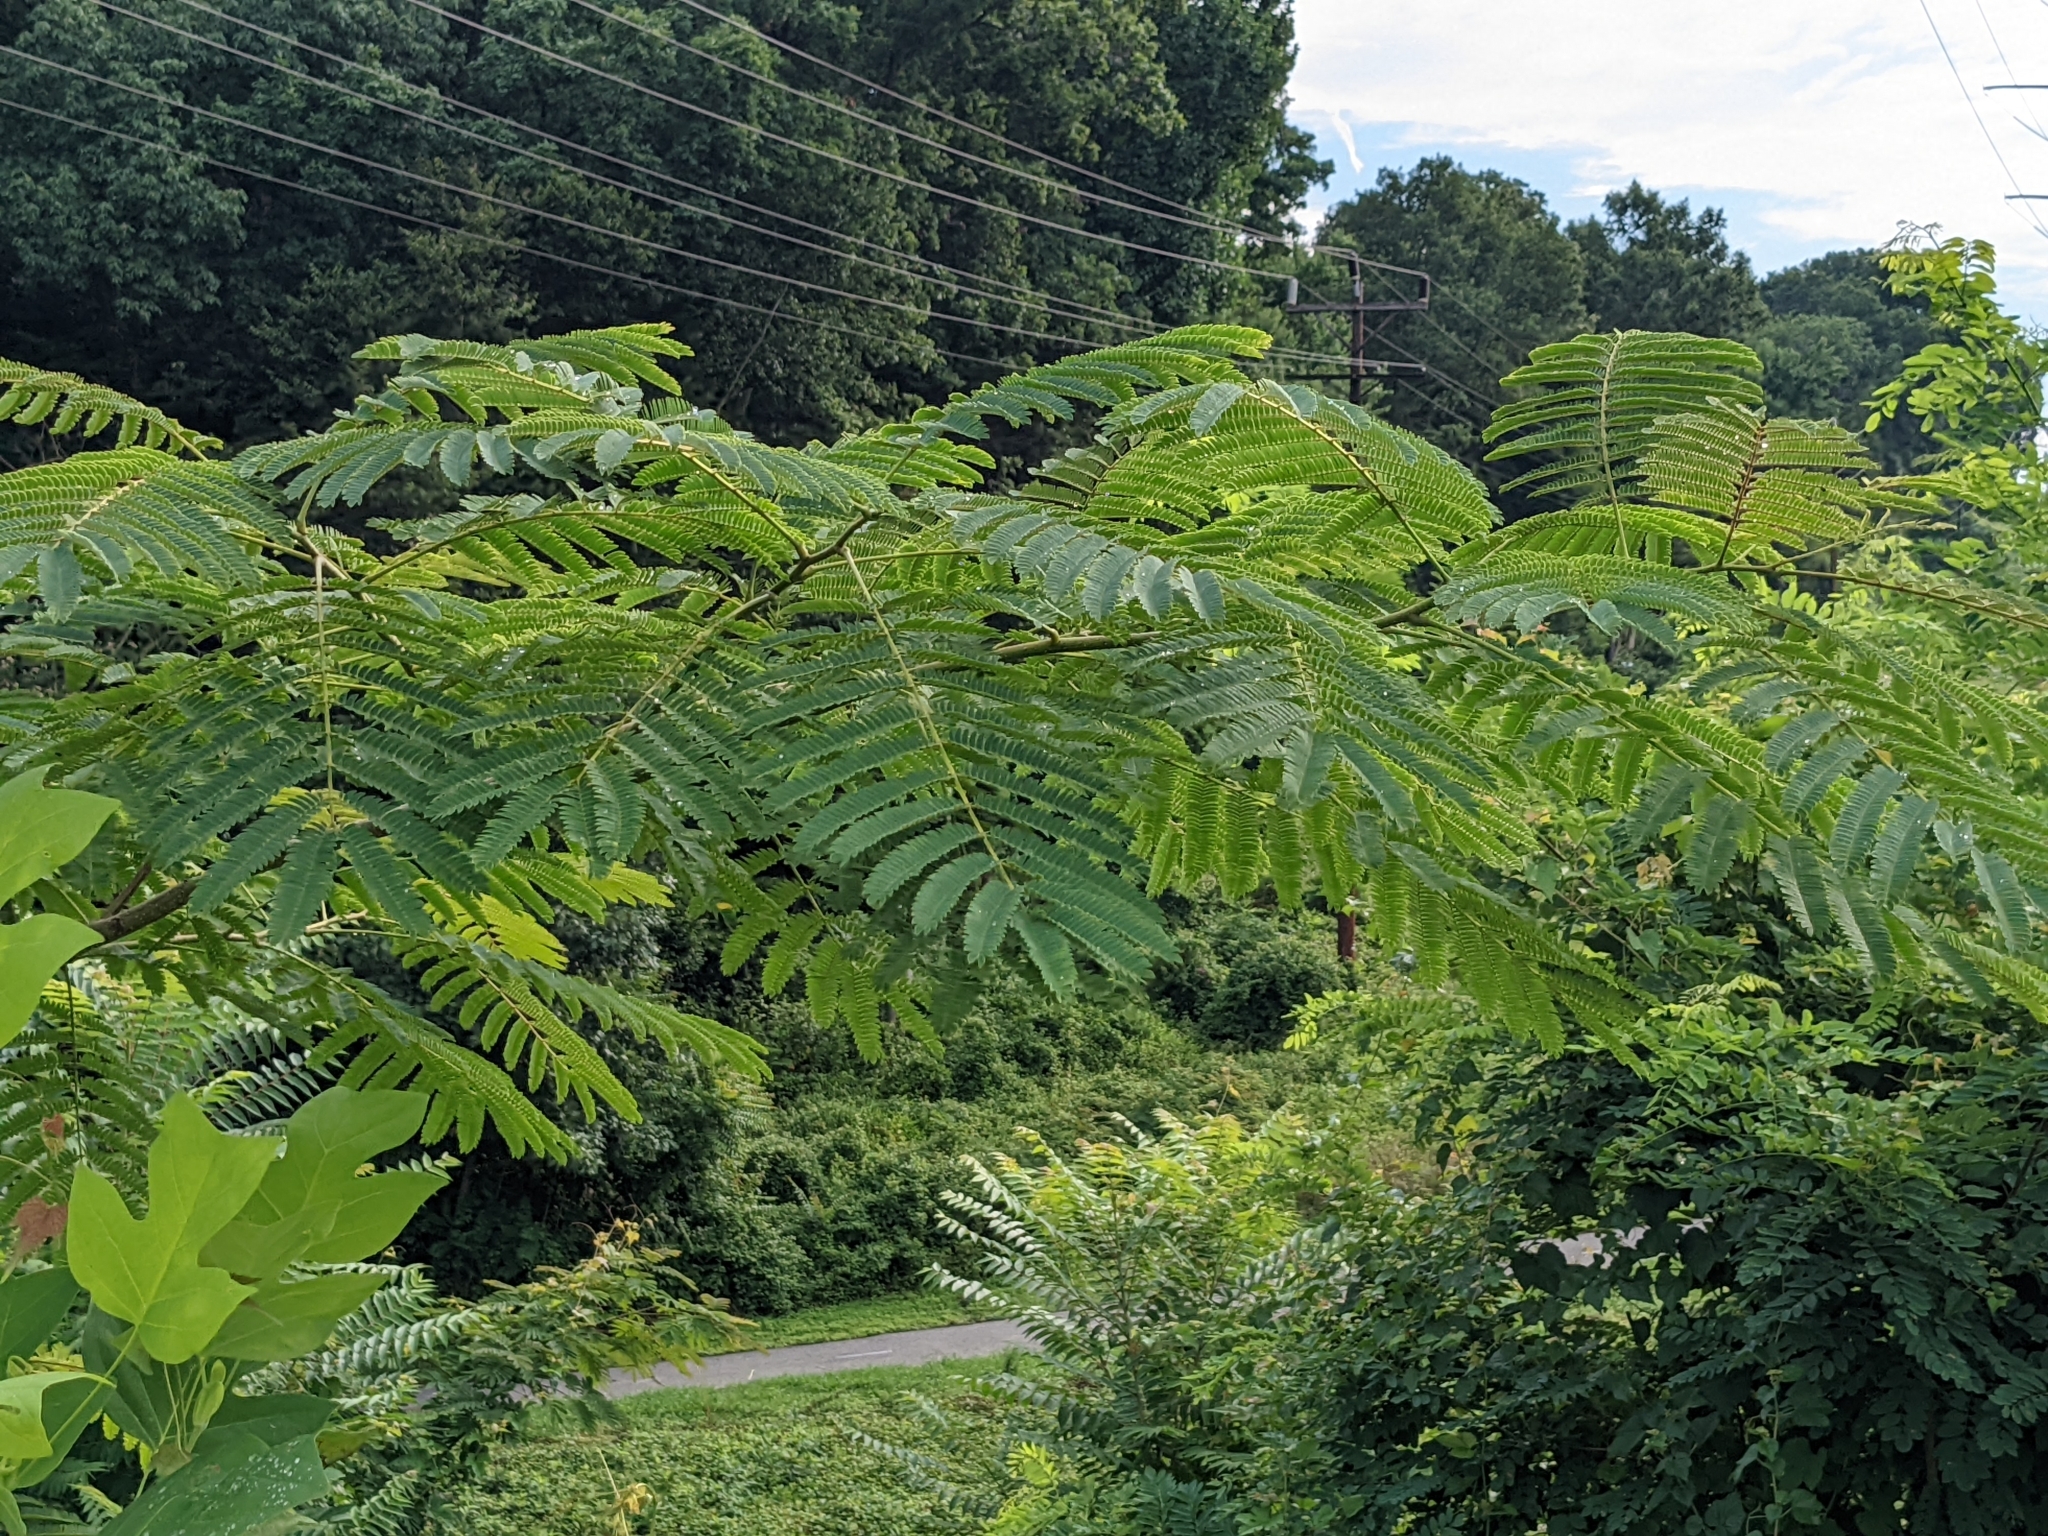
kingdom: Plantae
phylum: Tracheophyta
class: Magnoliopsida
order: Fabales
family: Fabaceae
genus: Albizia
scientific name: Albizia julibrissin
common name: Silktree
